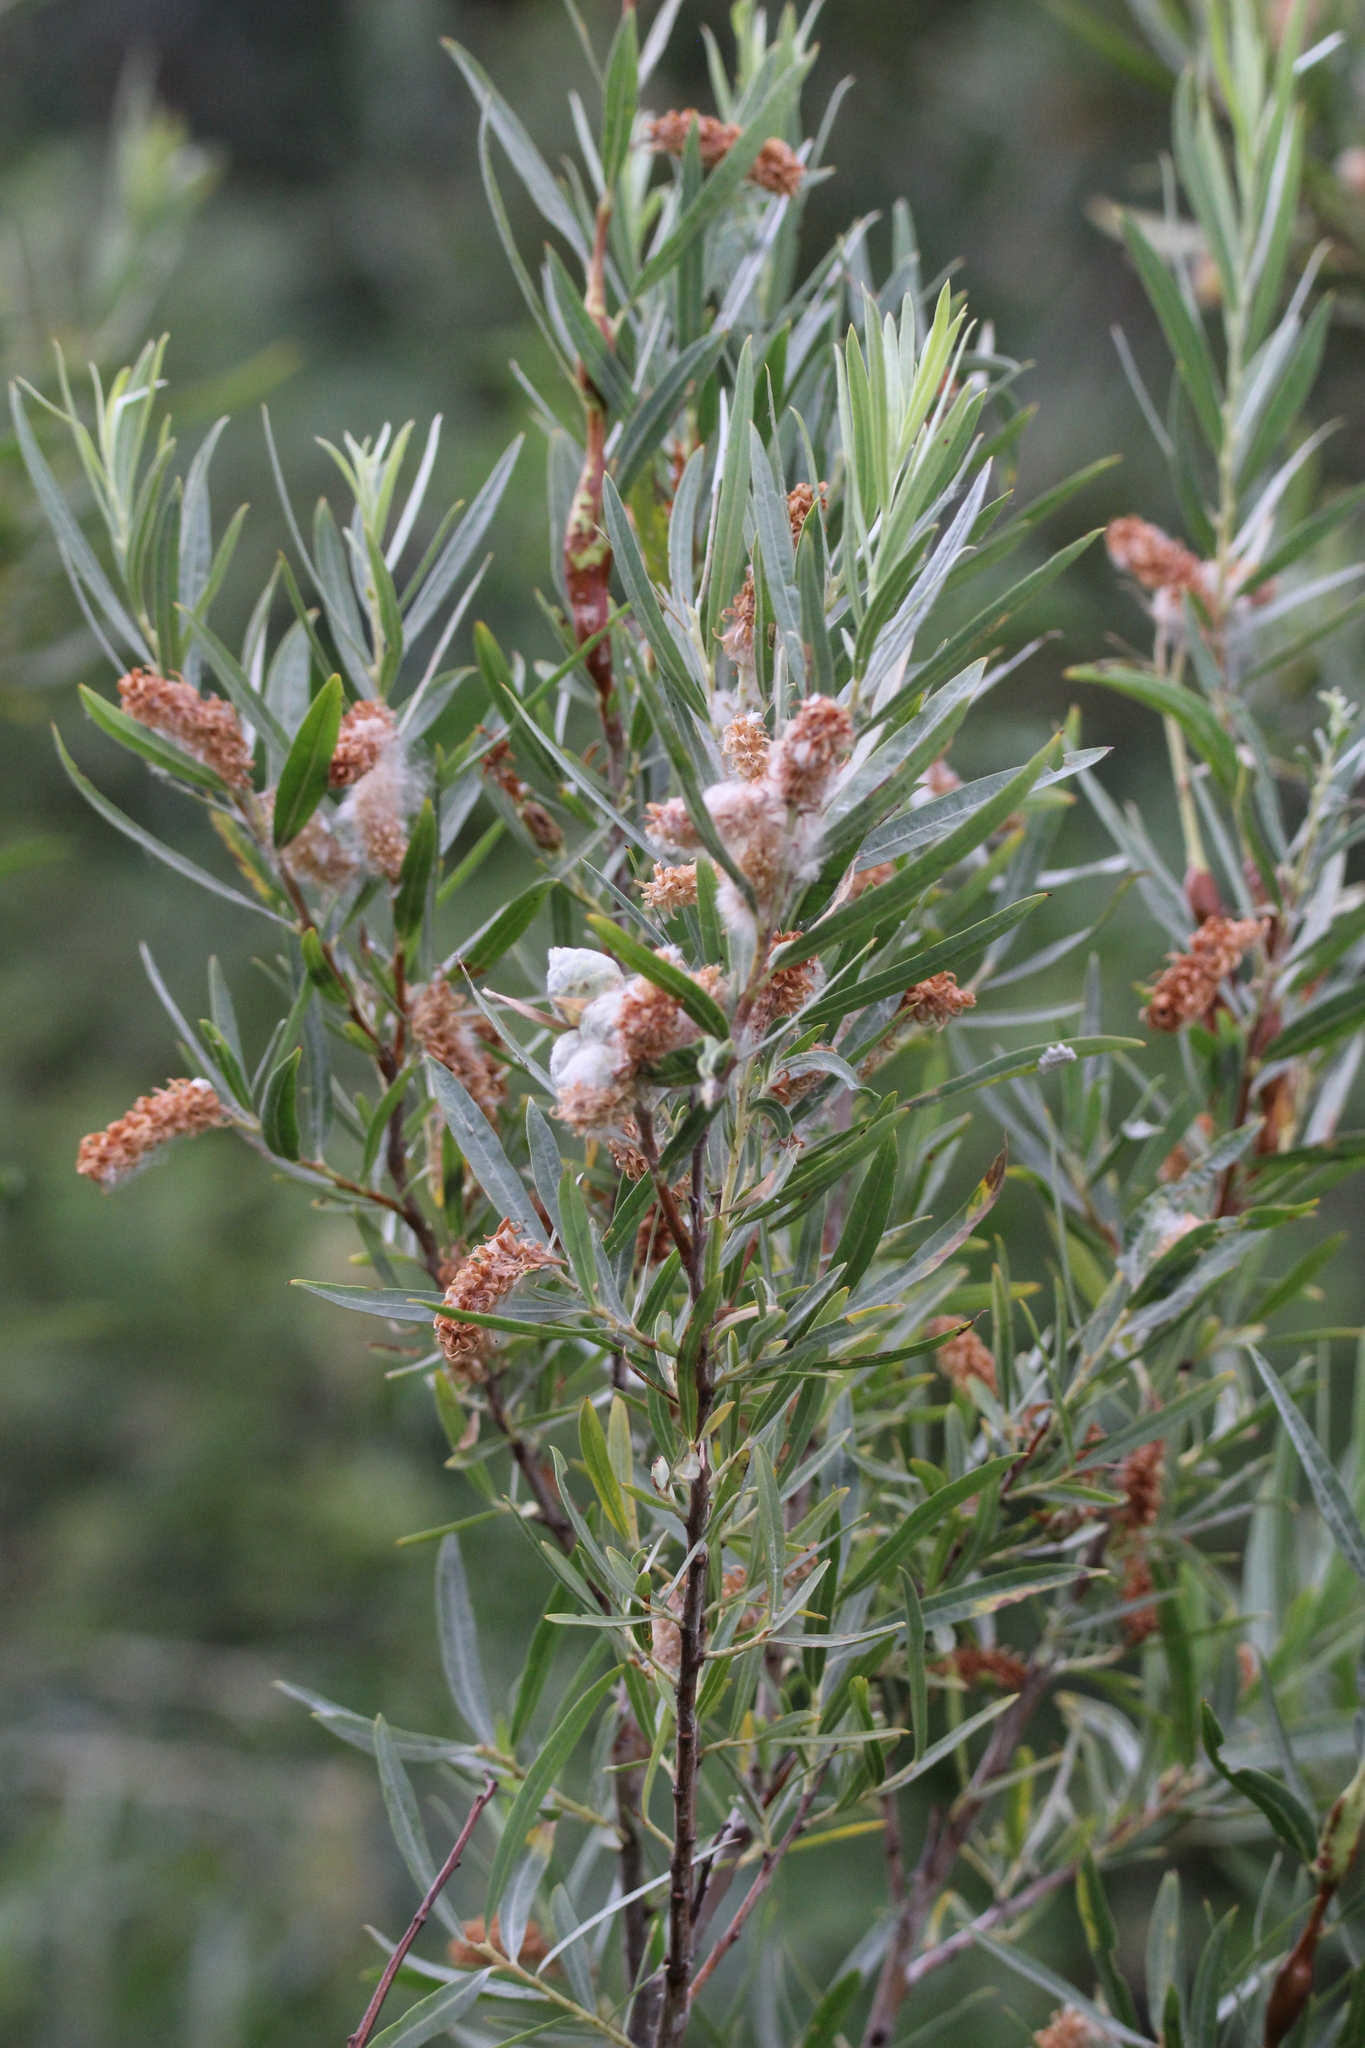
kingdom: Plantae
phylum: Tracheophyta
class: Magnoliopsida
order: Malpighiales
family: Salicaceae
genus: Salix
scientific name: Salix exigua
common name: Coyote willow
